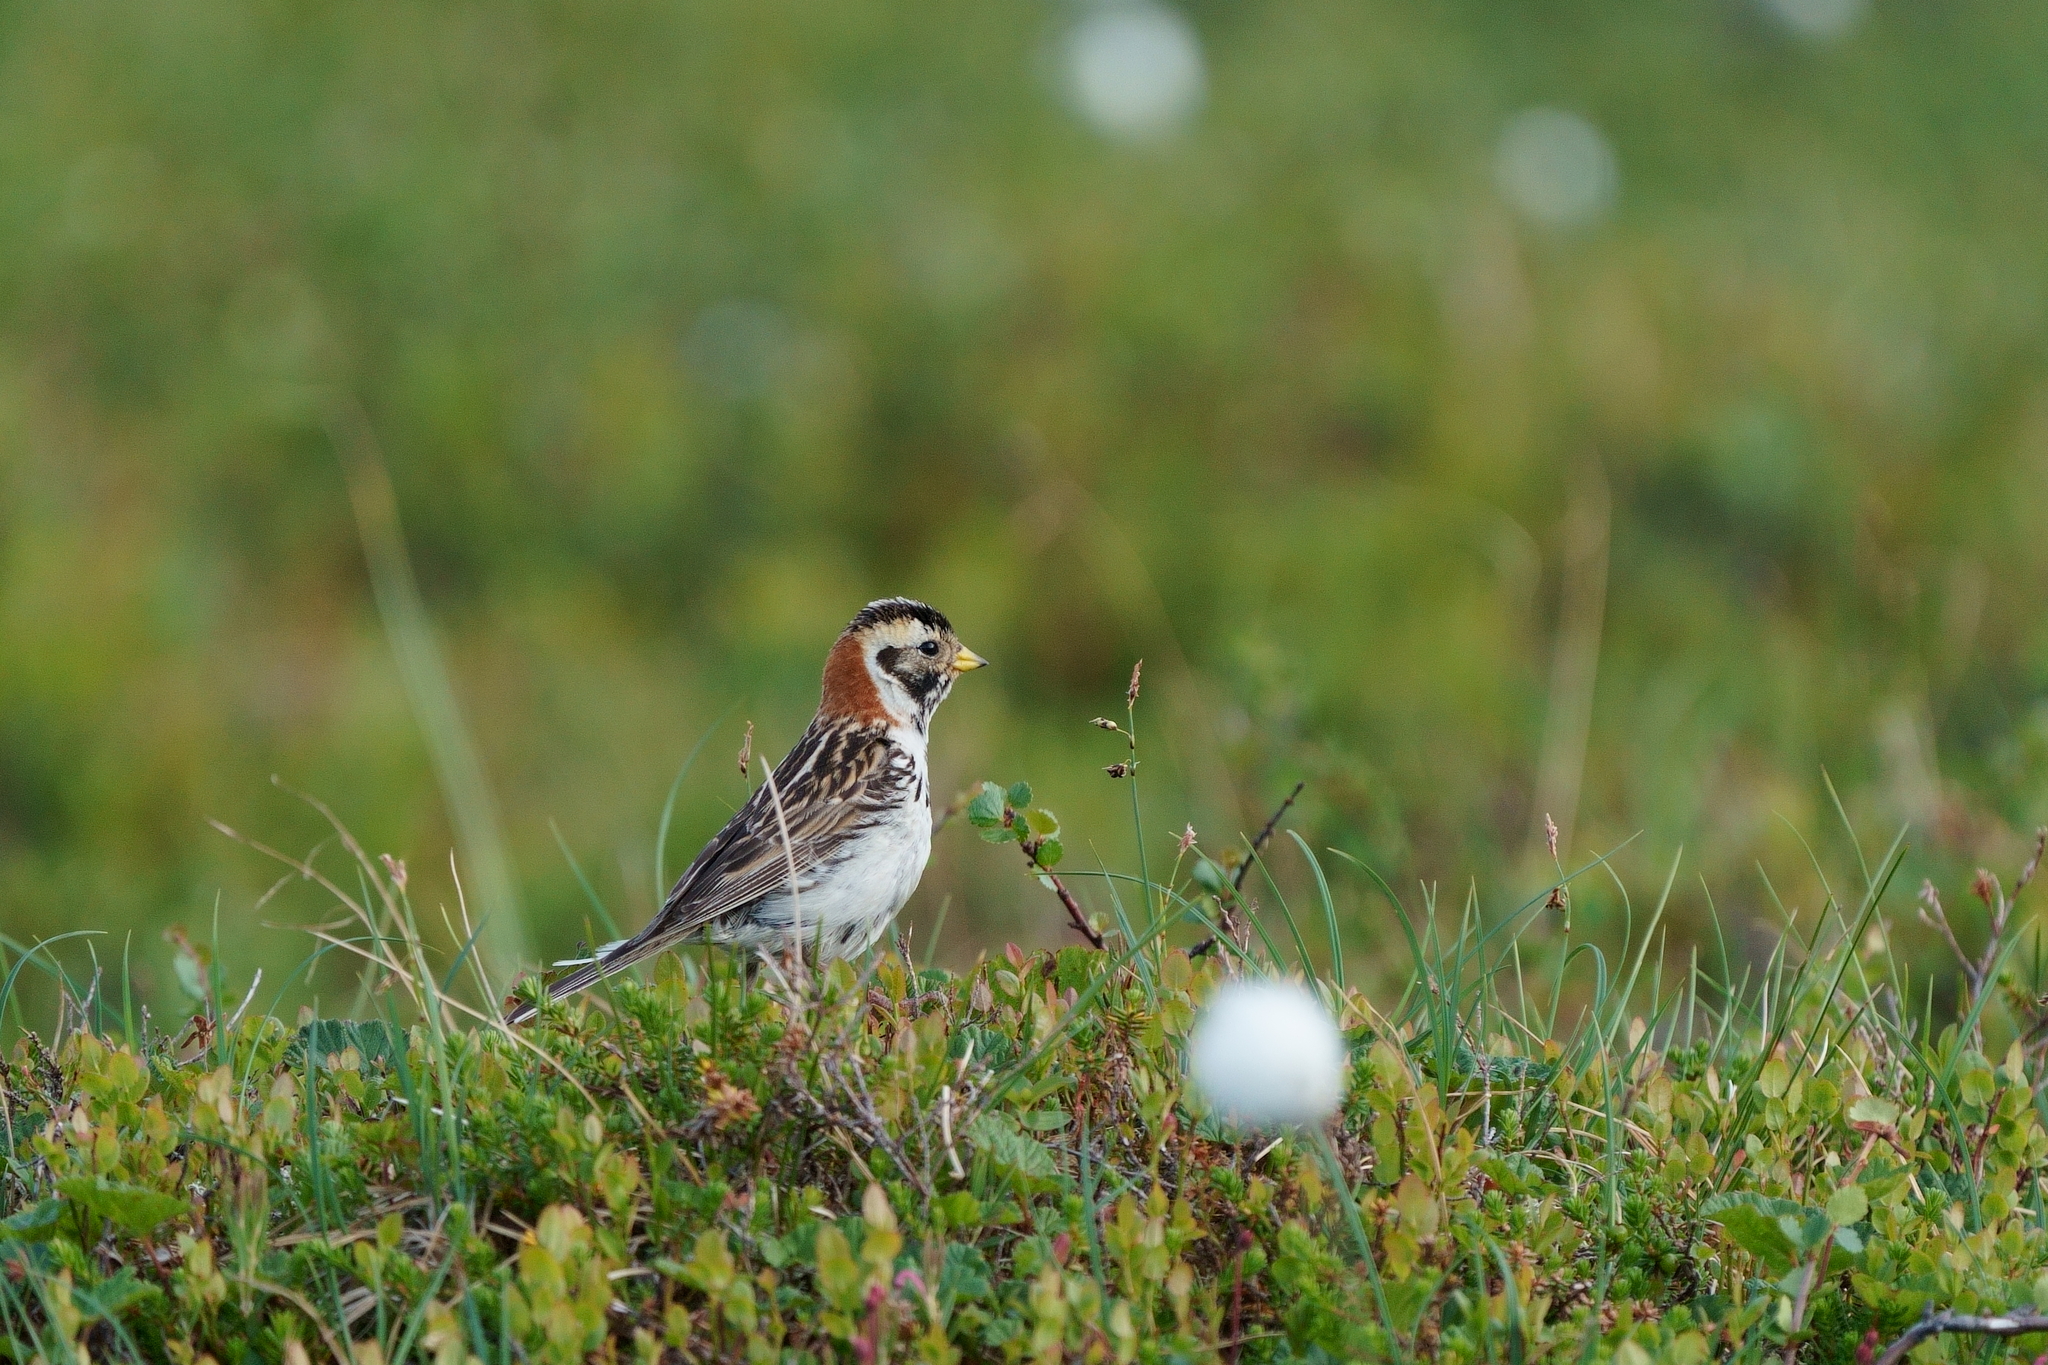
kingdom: Animalia
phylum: Chordata
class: Aves
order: Passeriformes
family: Calcariidae
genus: Calcarius
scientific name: Calcarius lapponicus
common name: Lapland longspur
